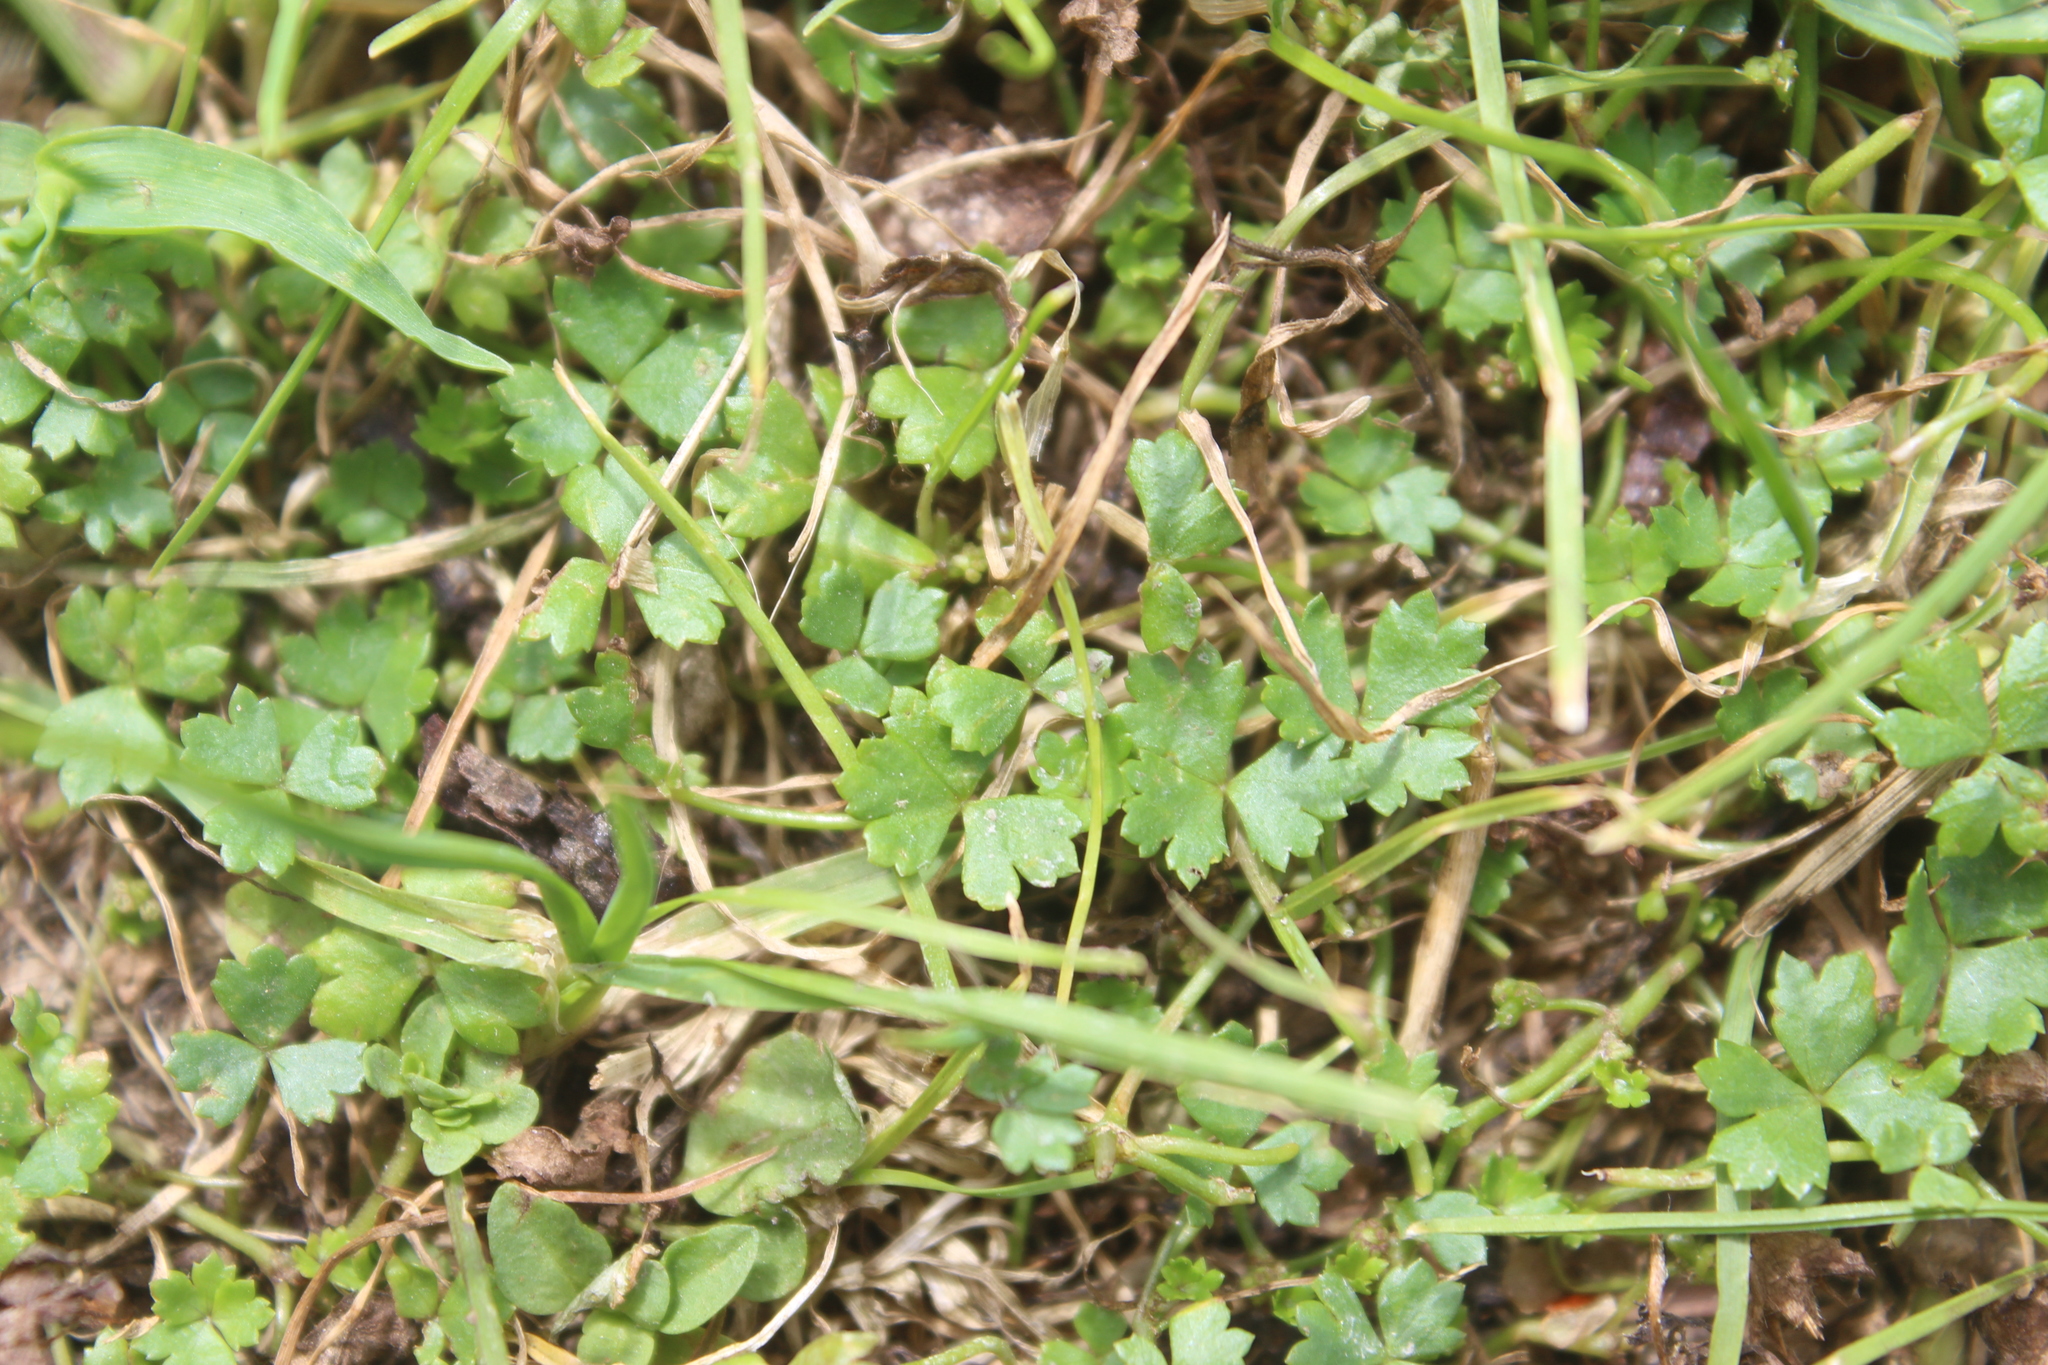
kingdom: Plantae
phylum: Tracheophyta
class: Magnoliopsida
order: Apiales
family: Araliaceae
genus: Hydrocotyle
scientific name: Hydrocotyle tripartita
